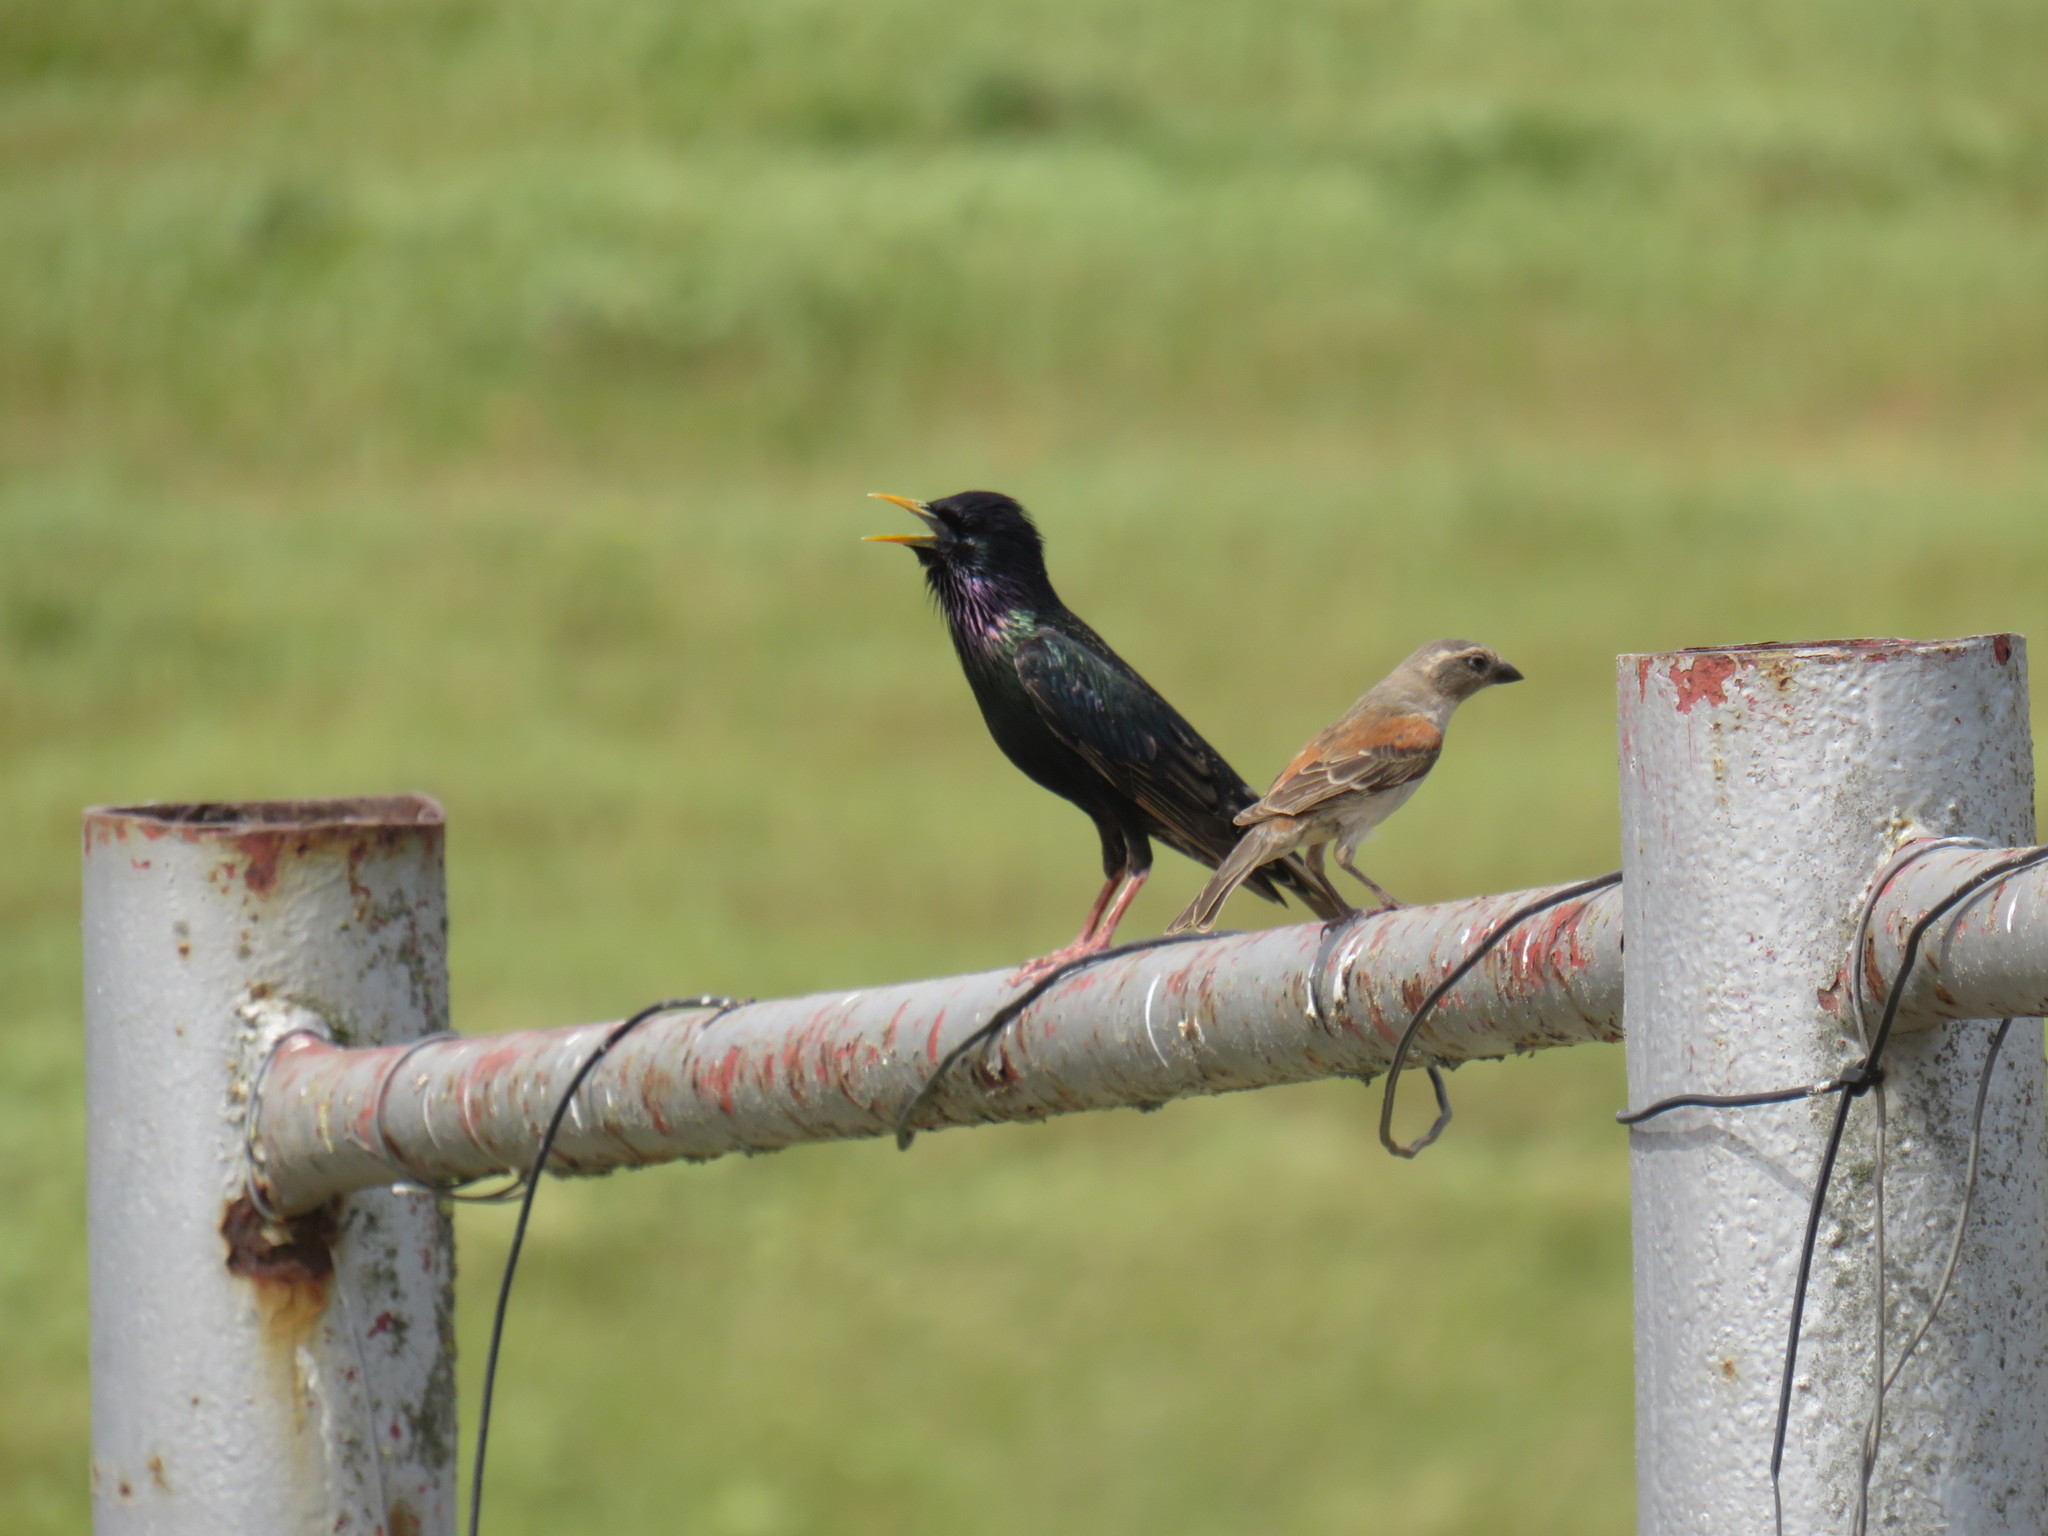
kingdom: Animalia
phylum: Chordata
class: Aves
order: Passeriformes
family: Sturnidae
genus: Sturnus
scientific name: Sturnus vulgaris
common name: Common starling
